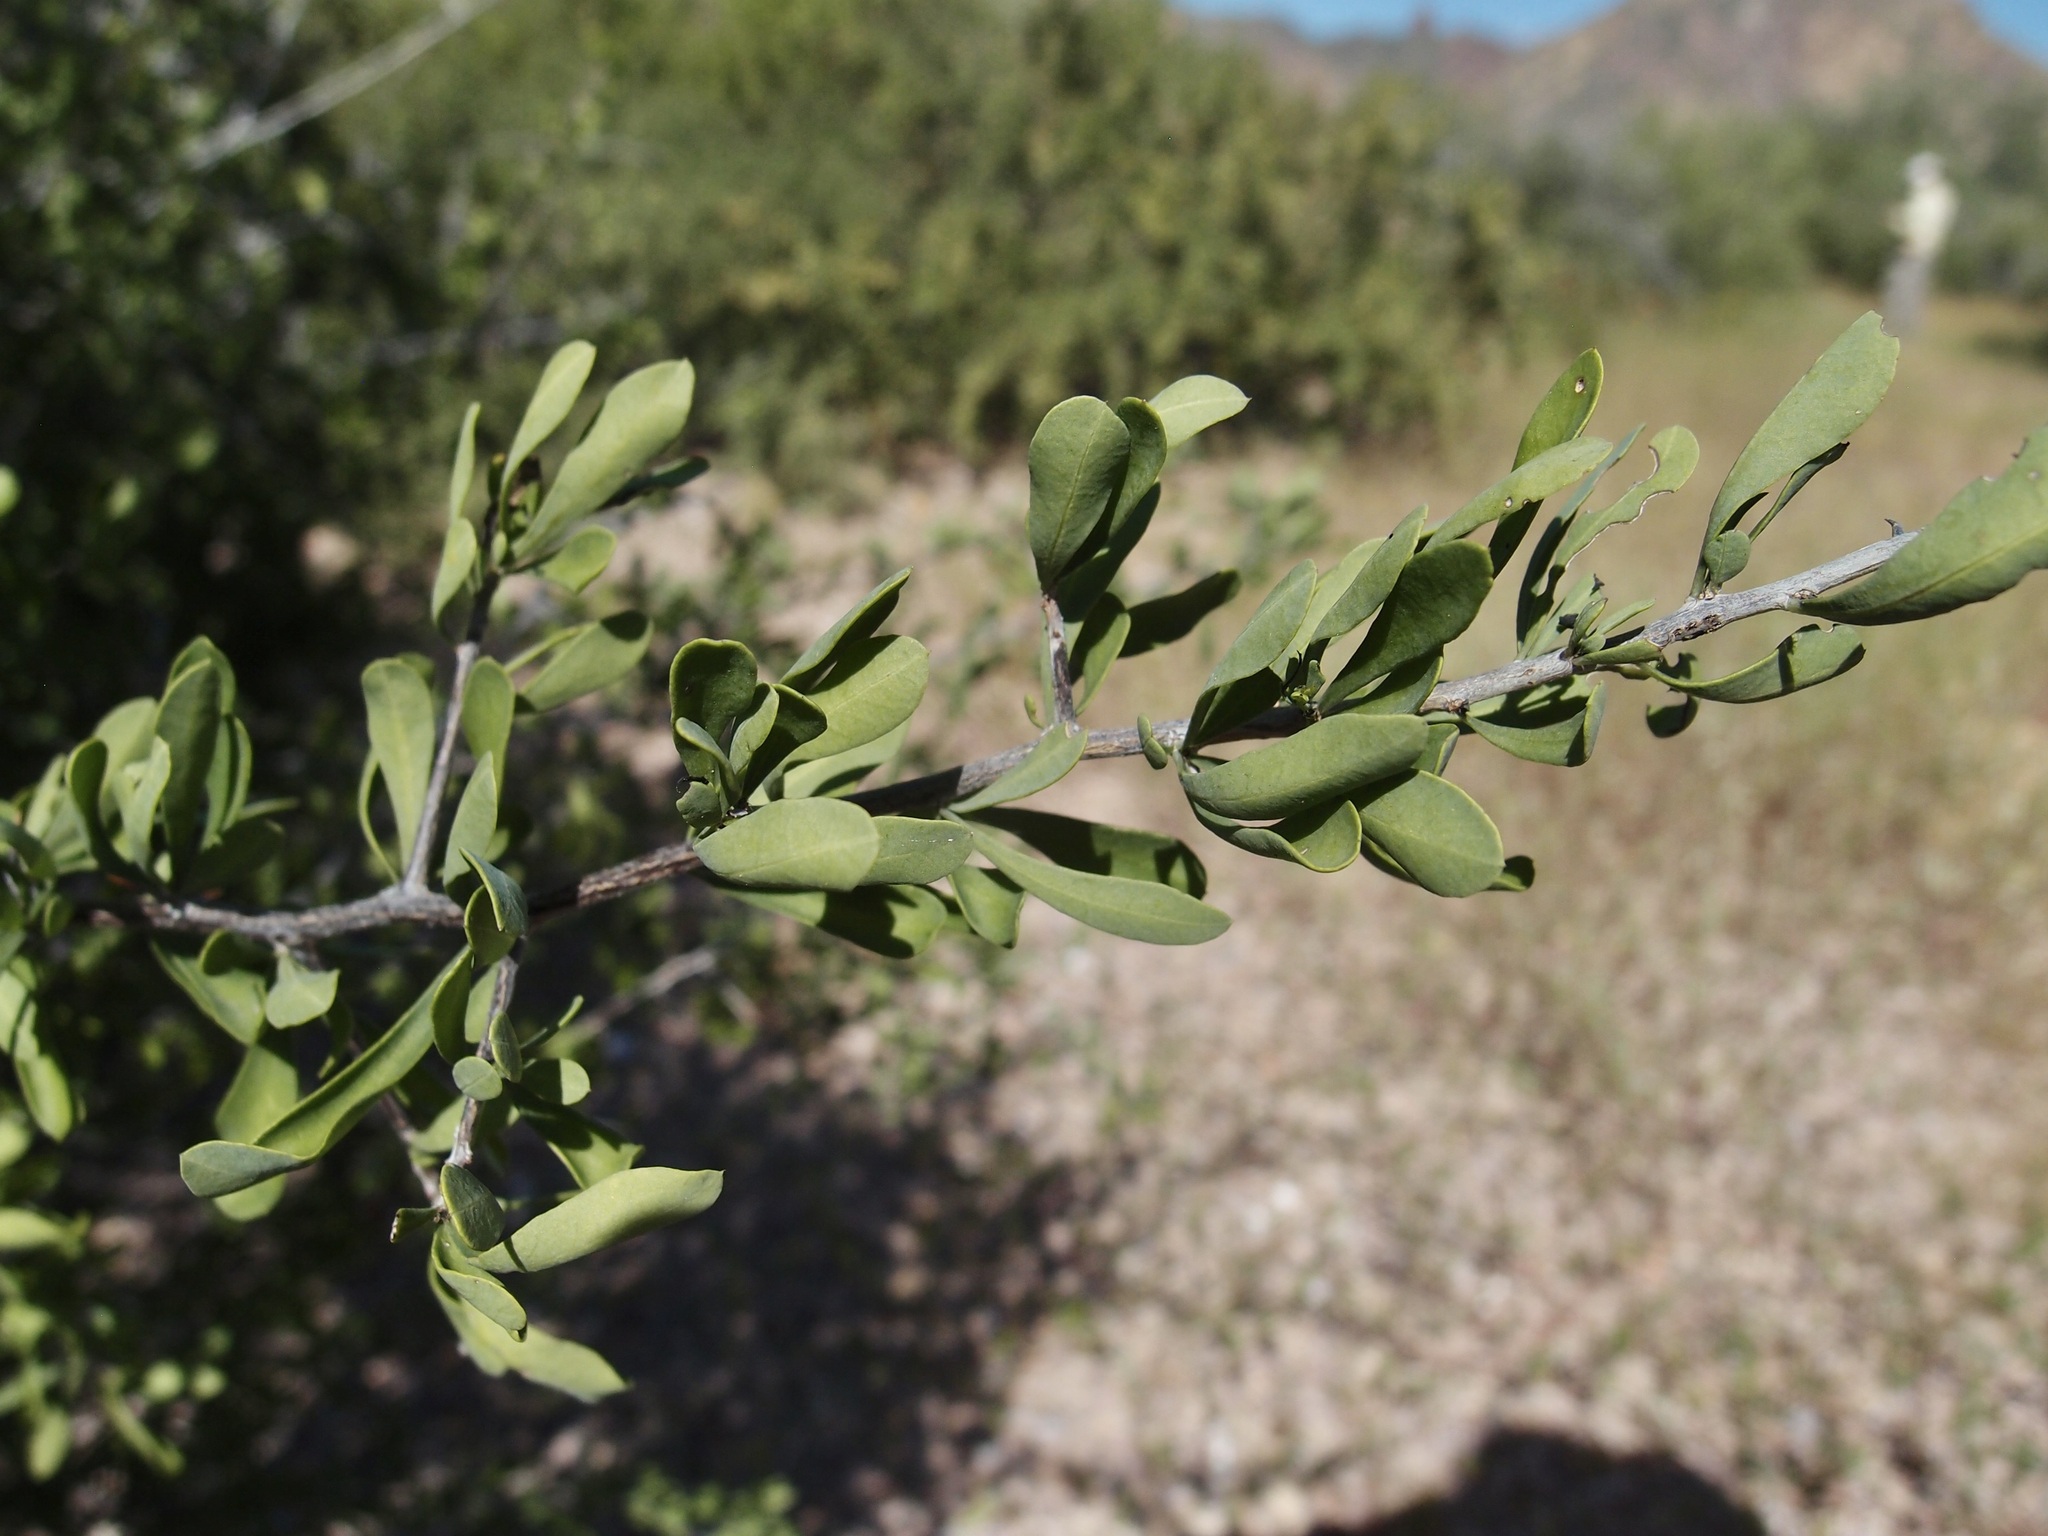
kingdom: Plantae
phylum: Tracheophyta
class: Magnoliopsida
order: Caryophyllales
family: Achatocarpaceae
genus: Phaulothamnus
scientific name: Phaulothamnus spinescens
